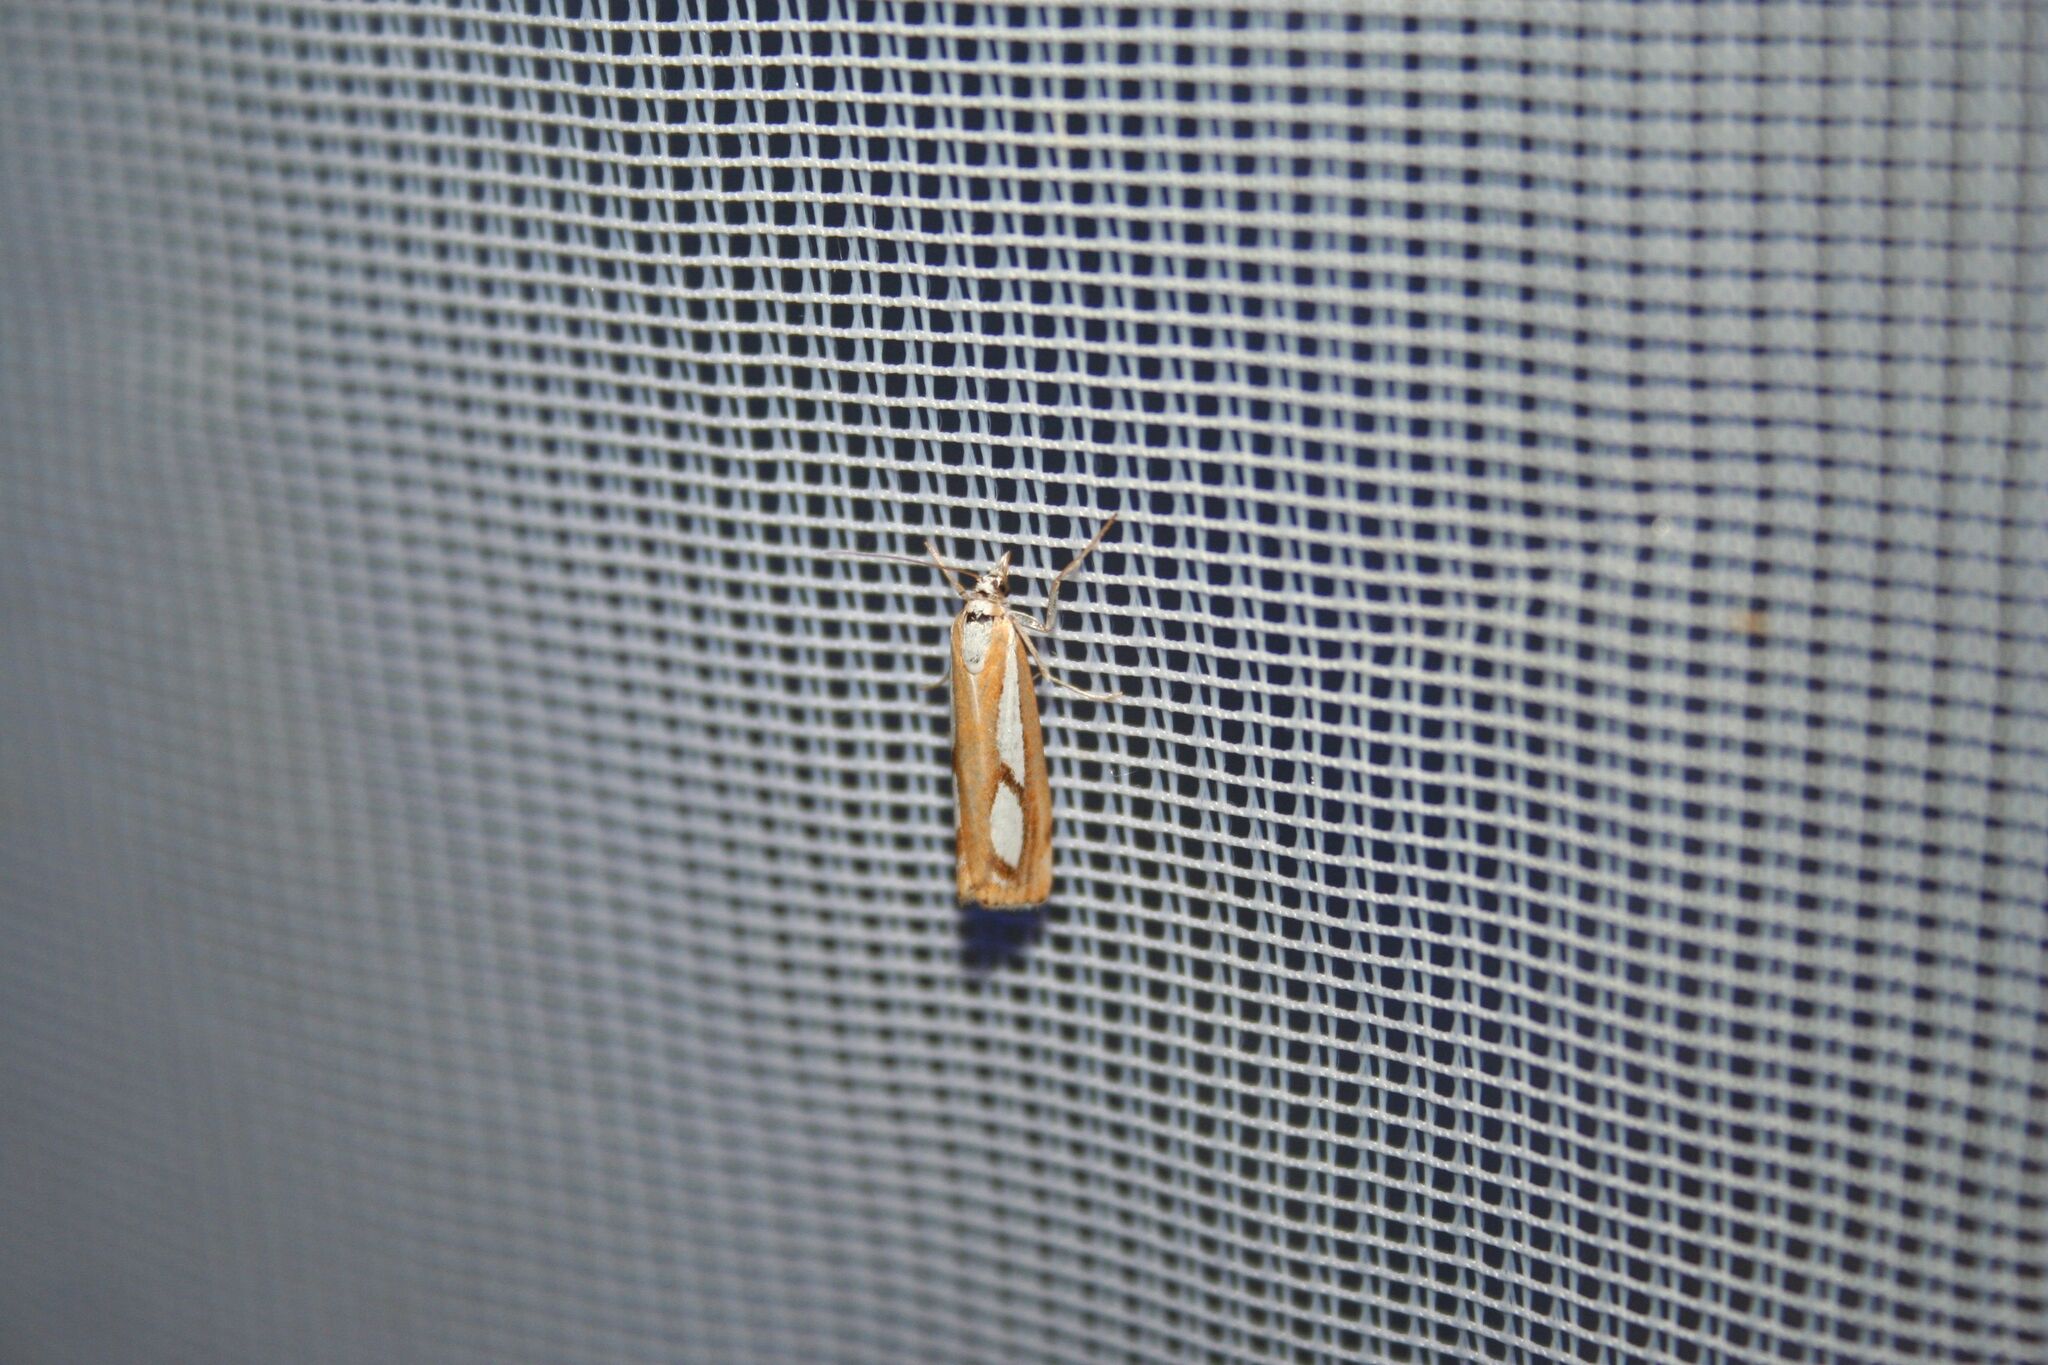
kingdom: Animalia
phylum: Arthropoda
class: Insecta
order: Lepidoptera
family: Crambidae
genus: Catoptria
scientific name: Catoptria pinella
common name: Pearl grass-veneer
